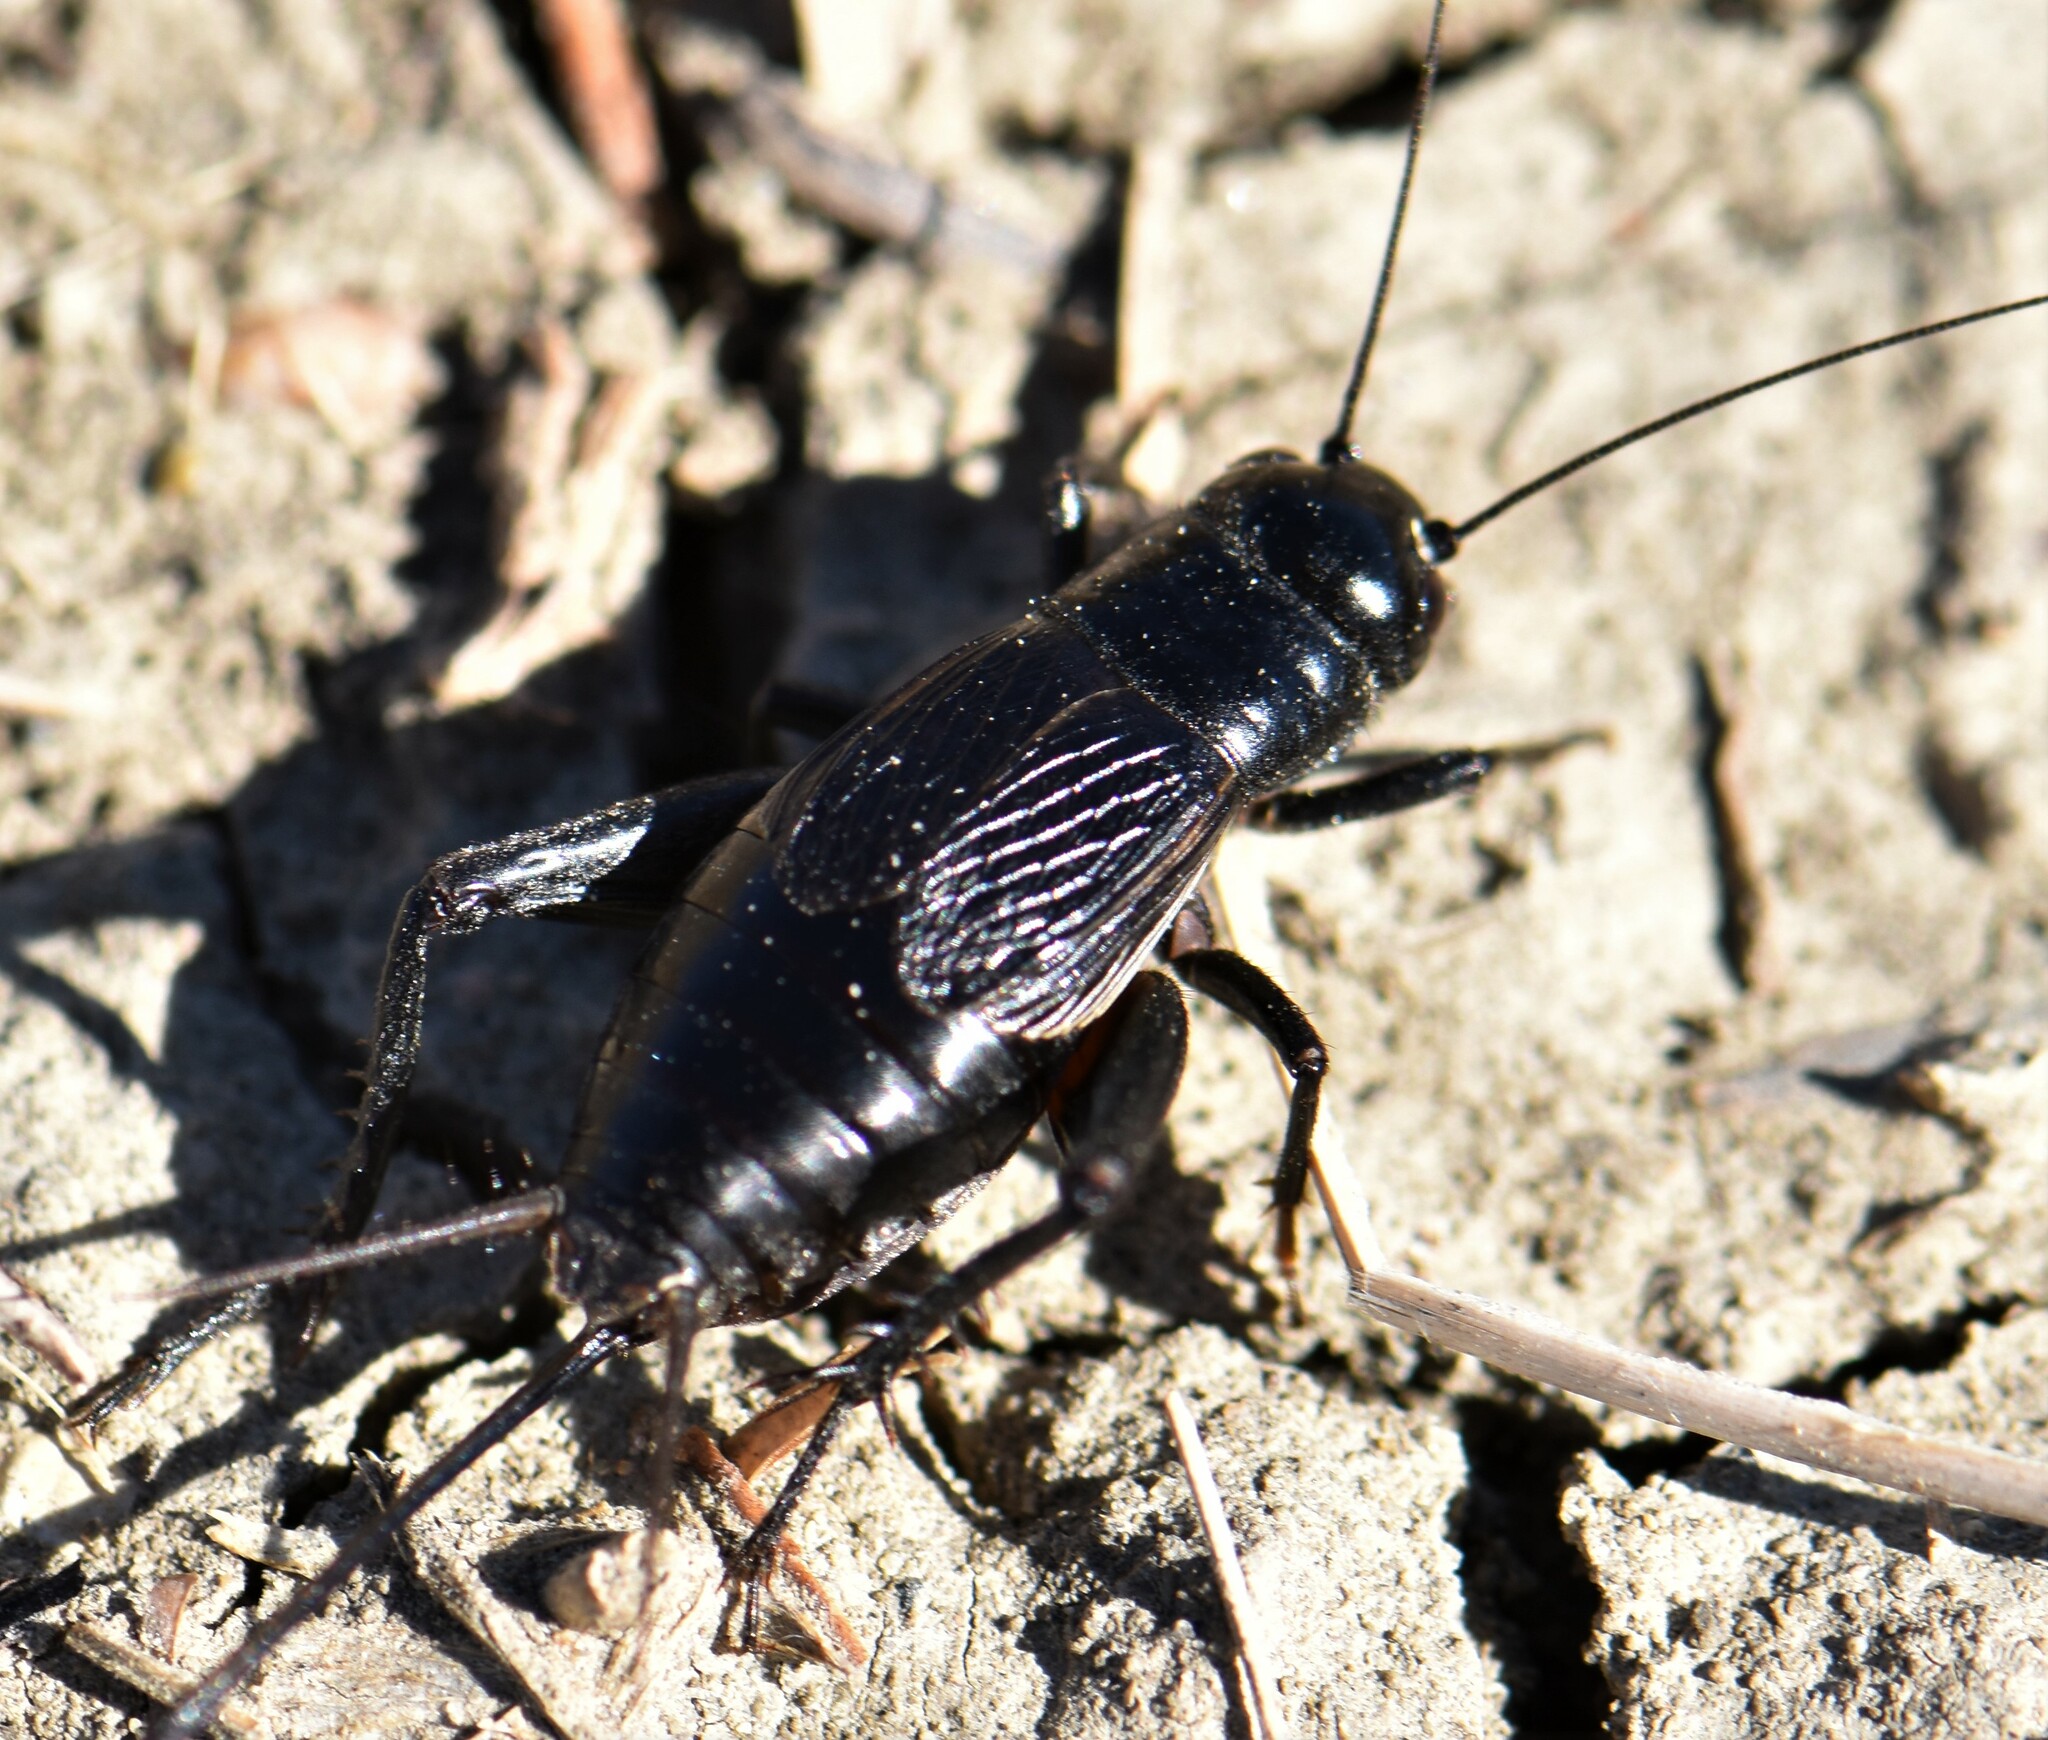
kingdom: Animalia
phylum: Arthropoda
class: Insecta
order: Orthoptera
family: Gryllidae
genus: Gryllus
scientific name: Gryllus pennsylvanicus
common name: Fall field cricket
